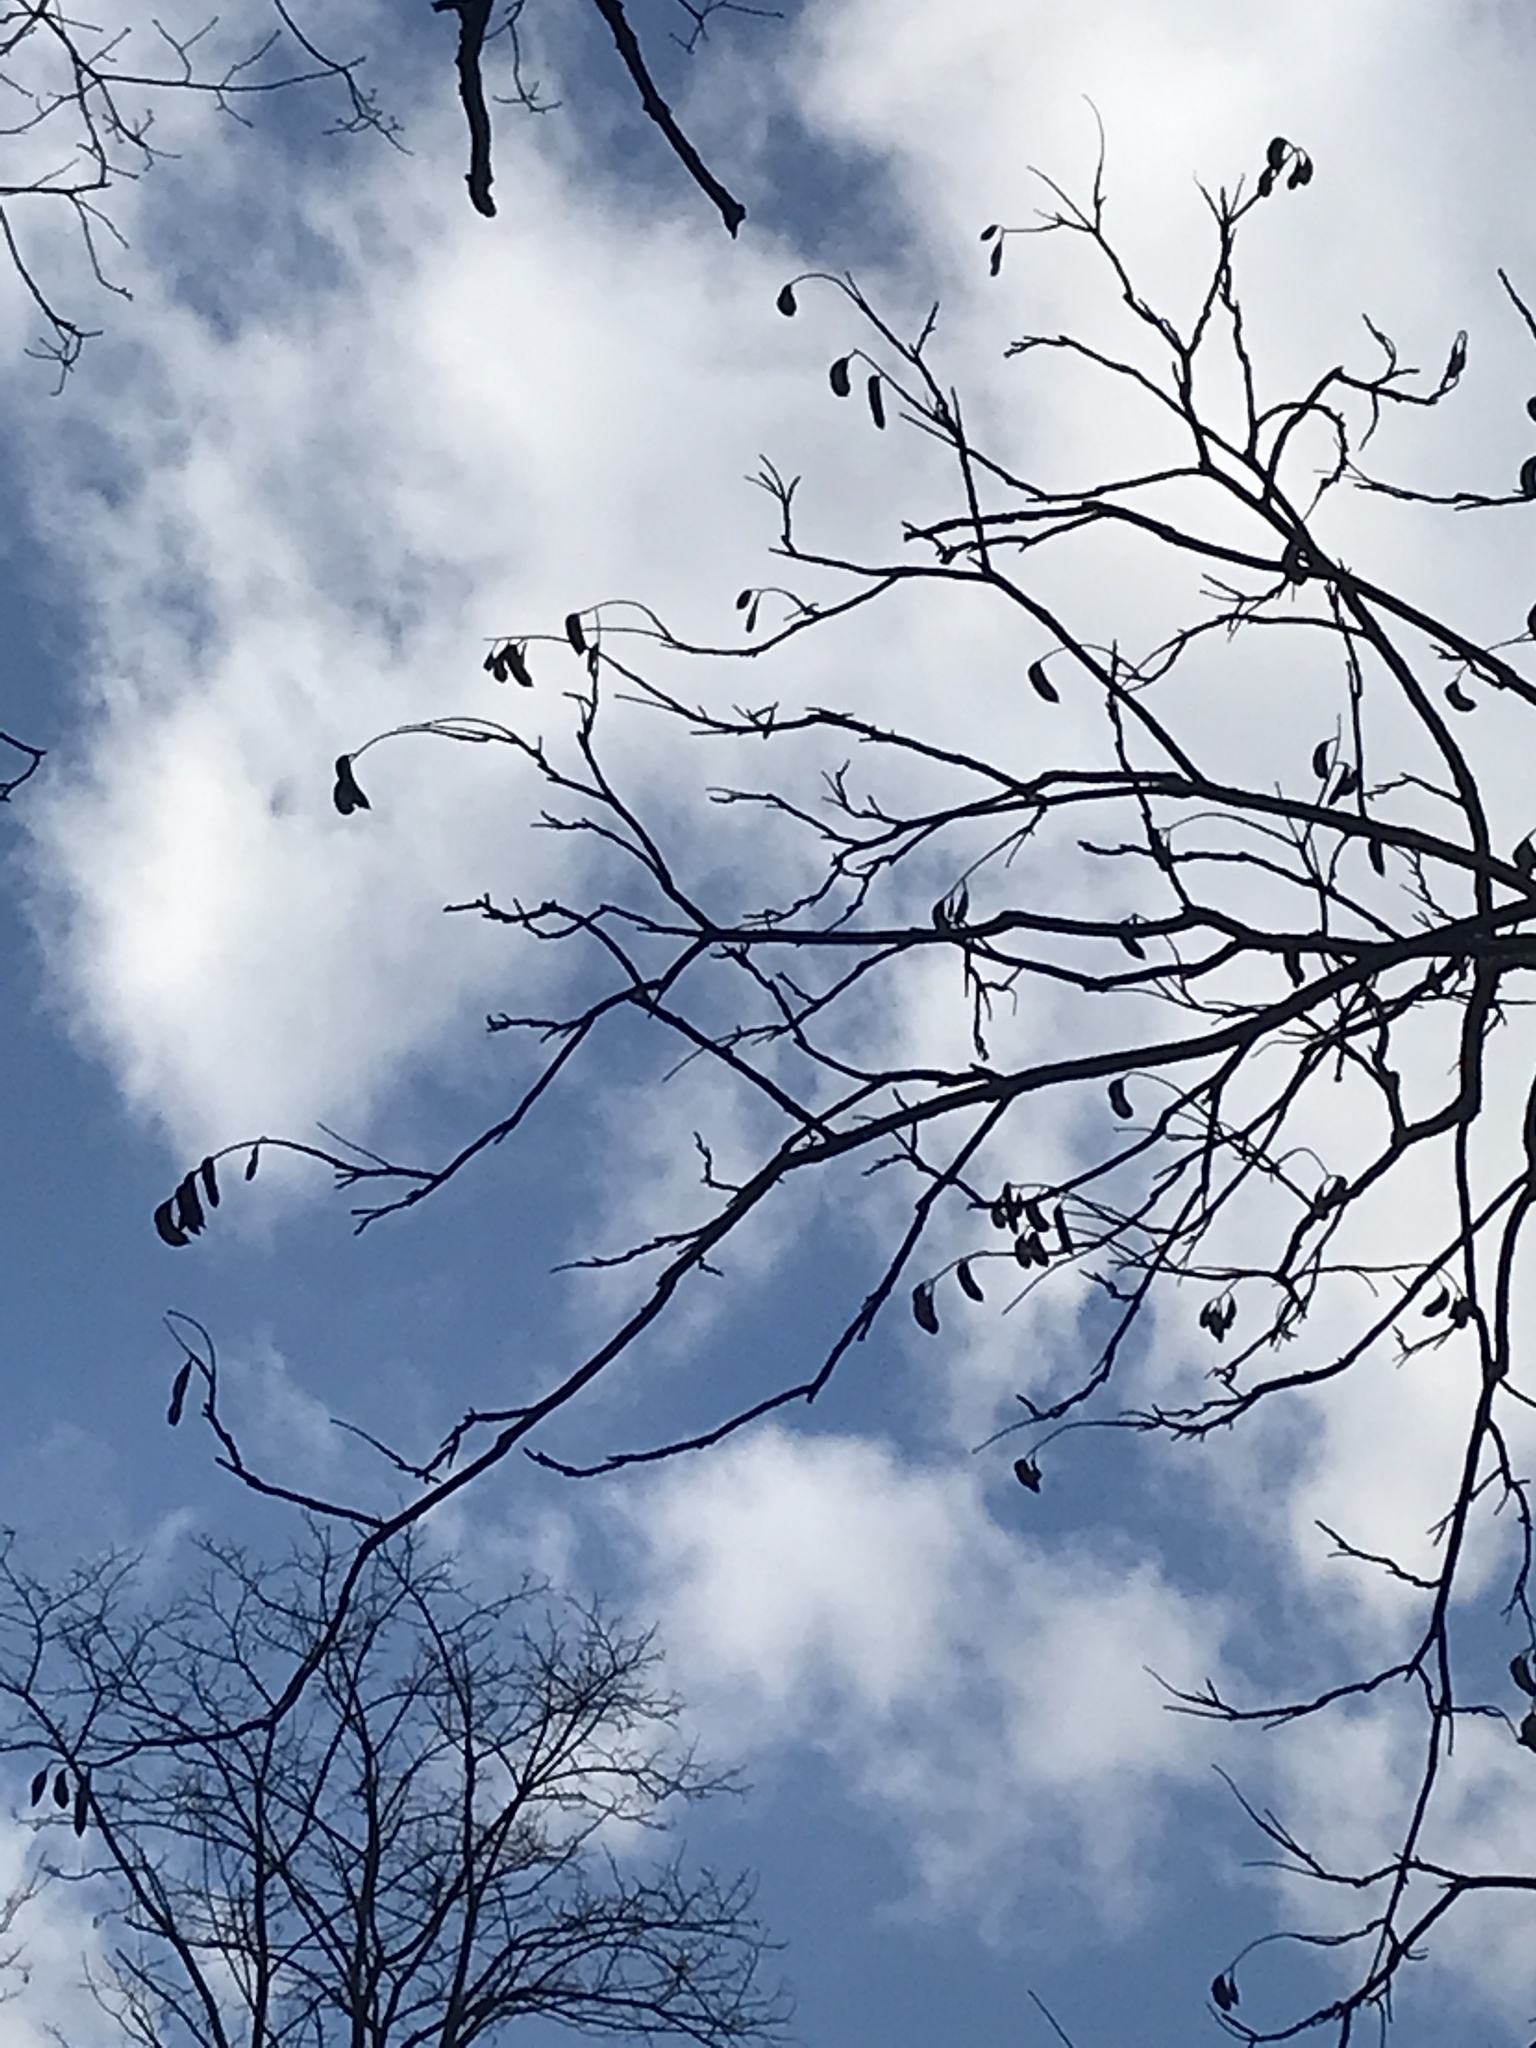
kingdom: Plantae
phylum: Tracheophyta
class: Magnoliopsida
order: Fabales
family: Fabaceae
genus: Gymnocladus
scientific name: Gymnocladus dioicus
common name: Kentucky coffee-tree
